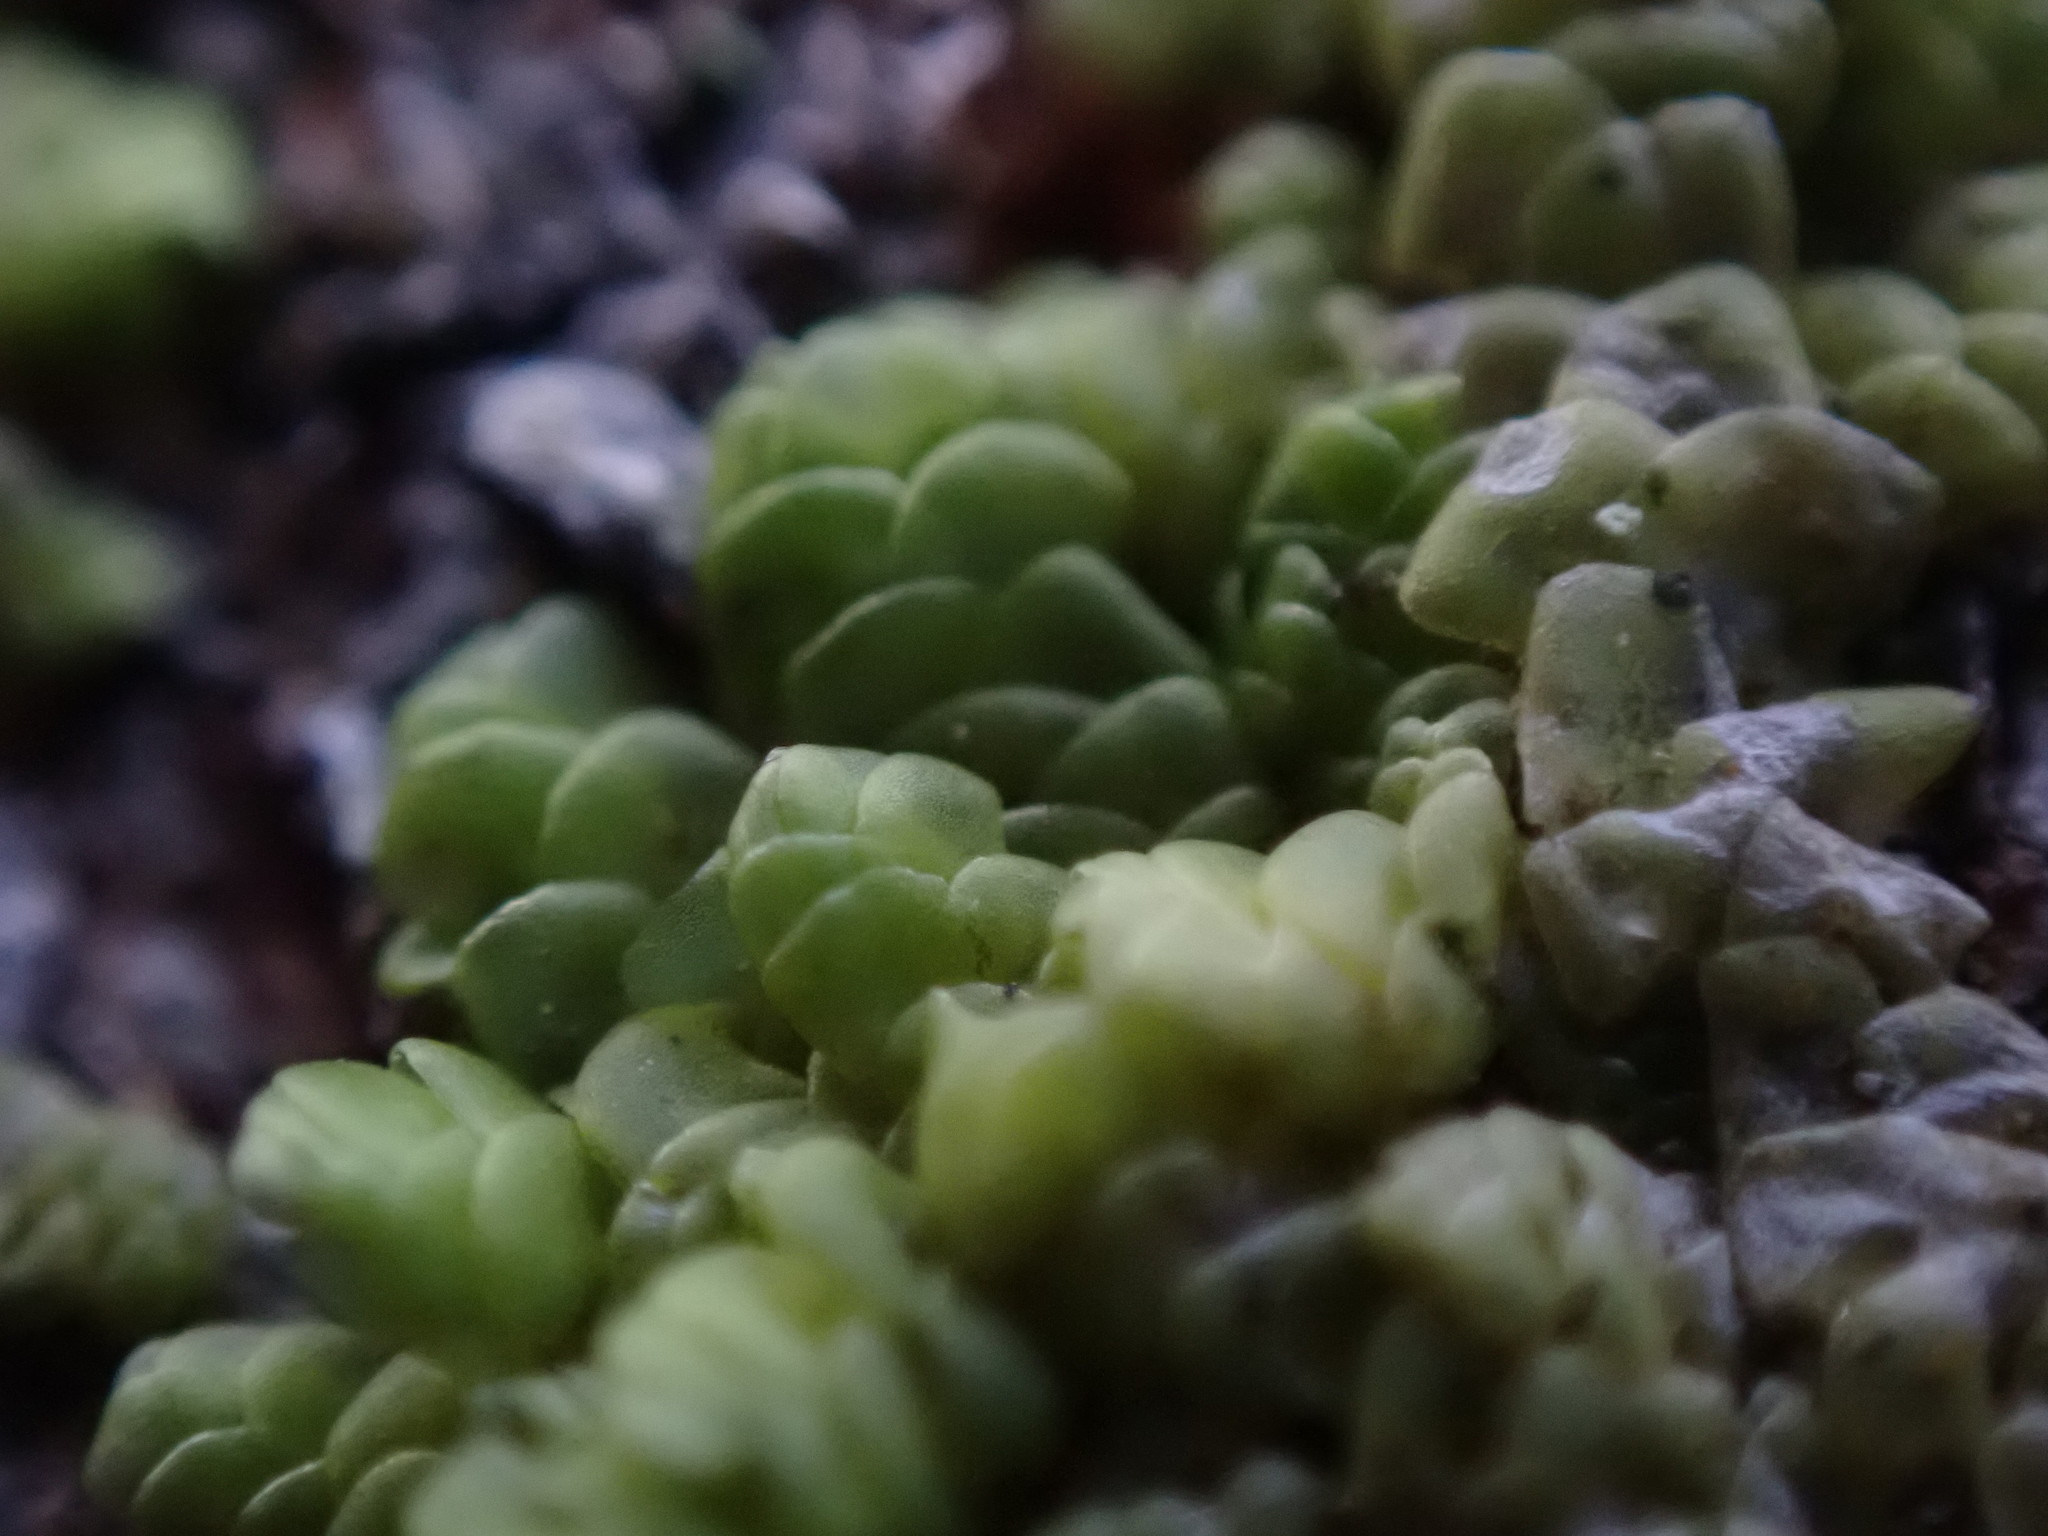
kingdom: Plantae
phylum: Marchantiophyta
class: Jungermanniopsida
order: Porellales
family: Radulaceae
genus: Radula
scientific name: Radula complanata
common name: Flat-leaved scalewort
